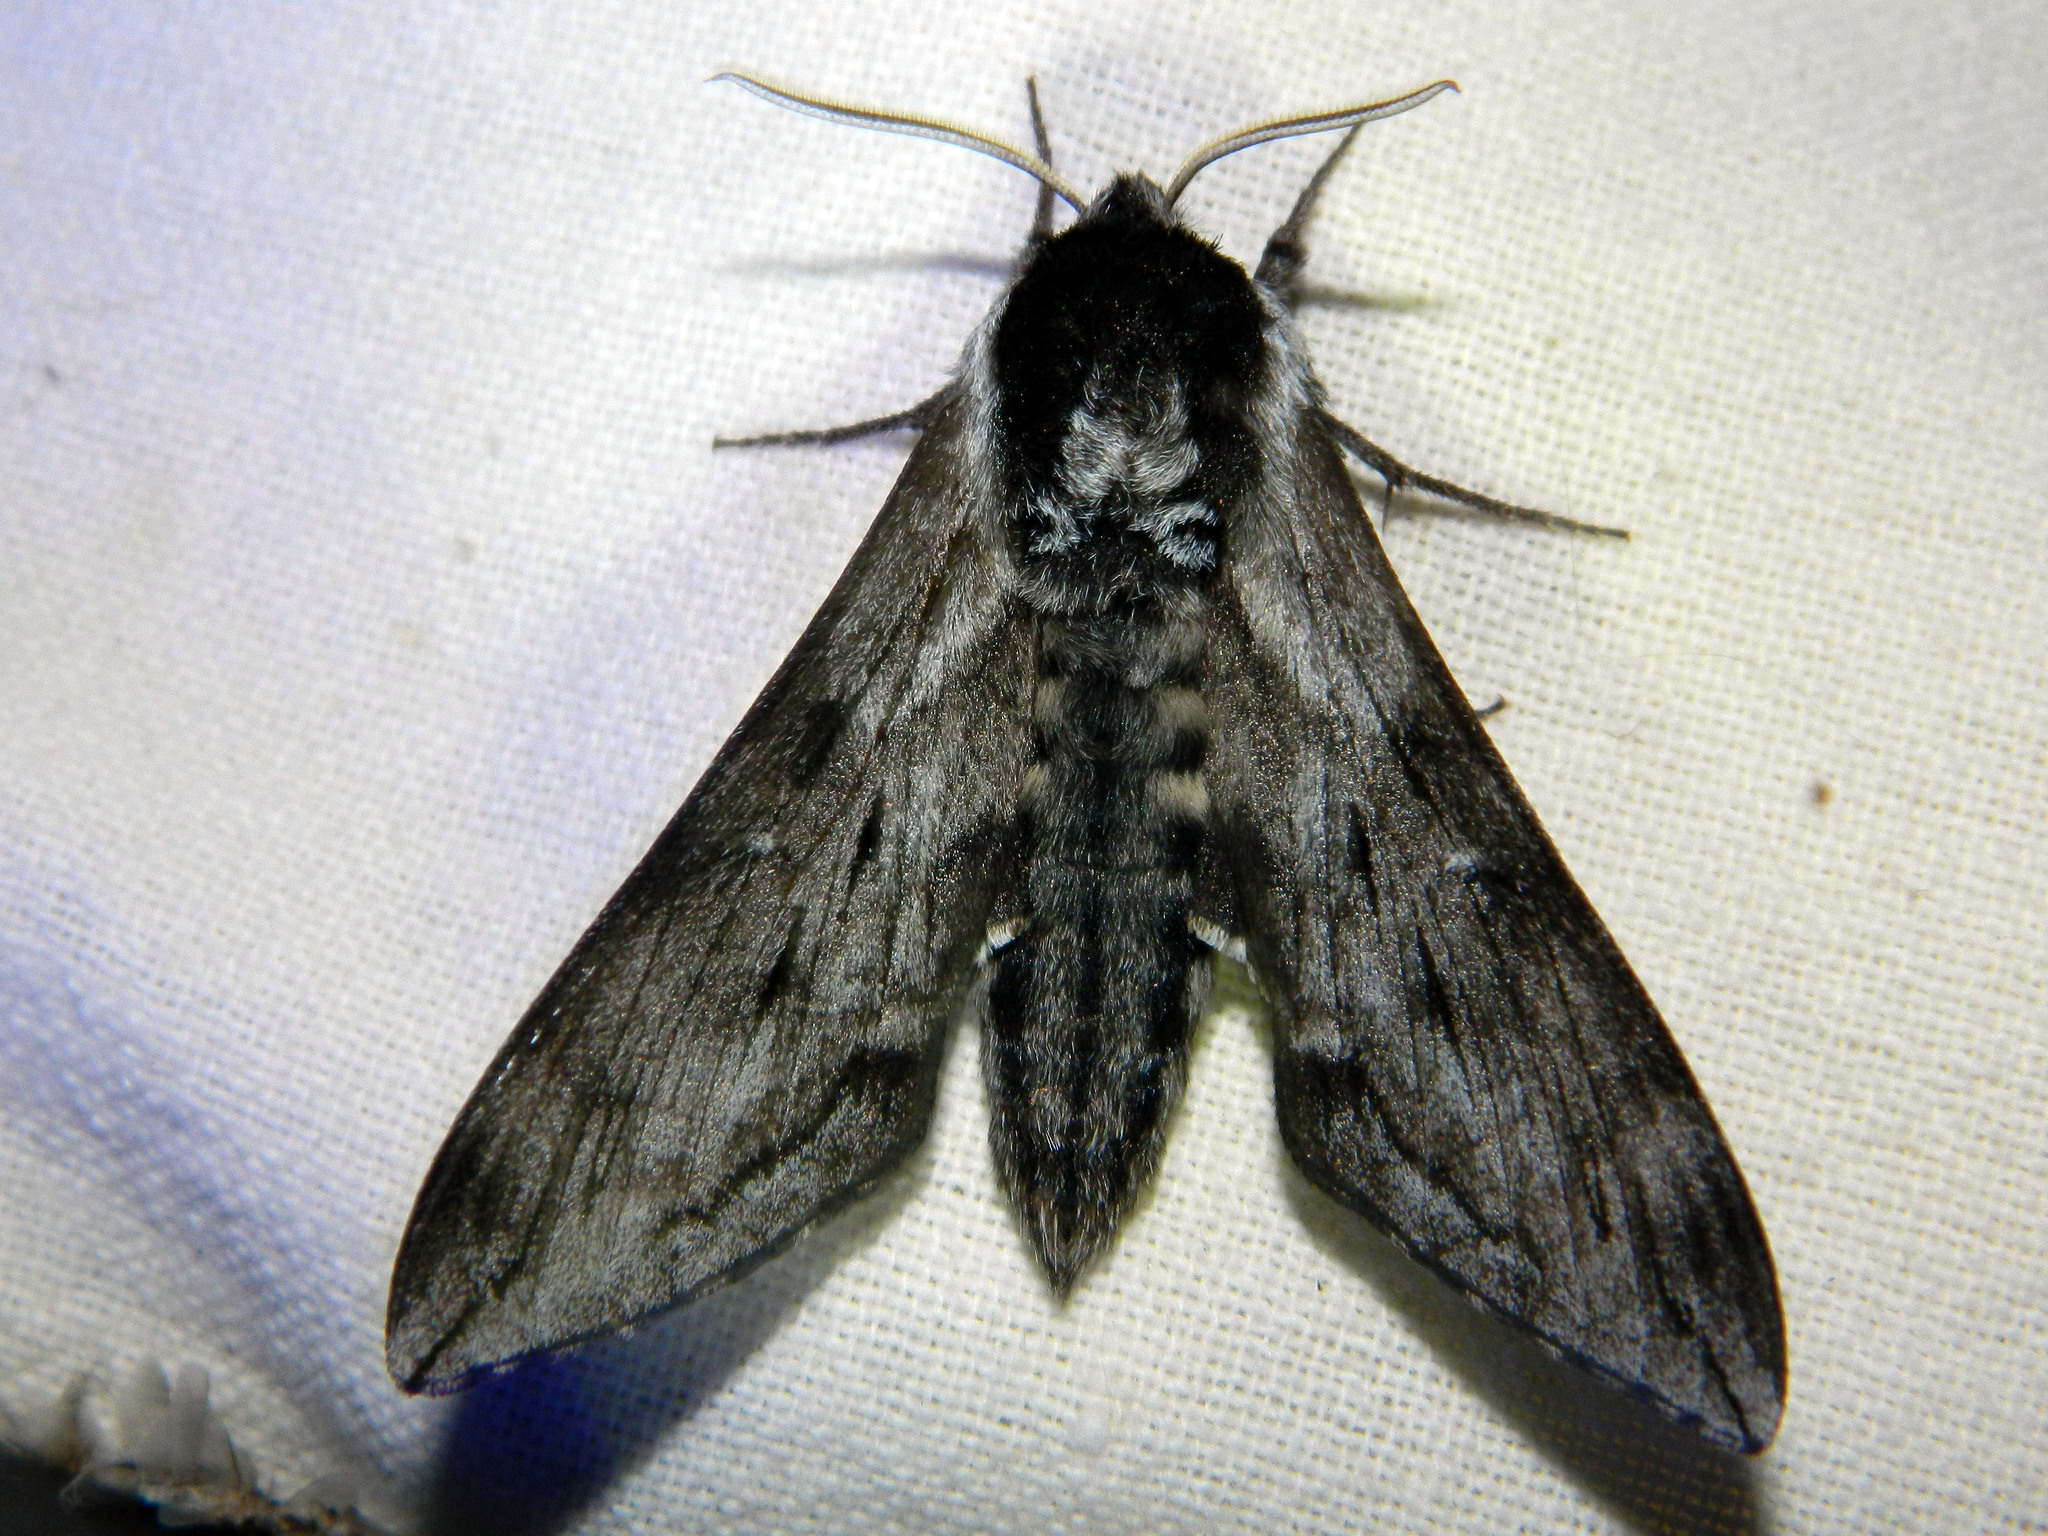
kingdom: Animalia
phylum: Arthropoda
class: Insecta
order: Lepidoptera
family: Sphingidae
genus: Sphinx
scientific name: Sphinx poecila
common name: Northern apple sphinx
